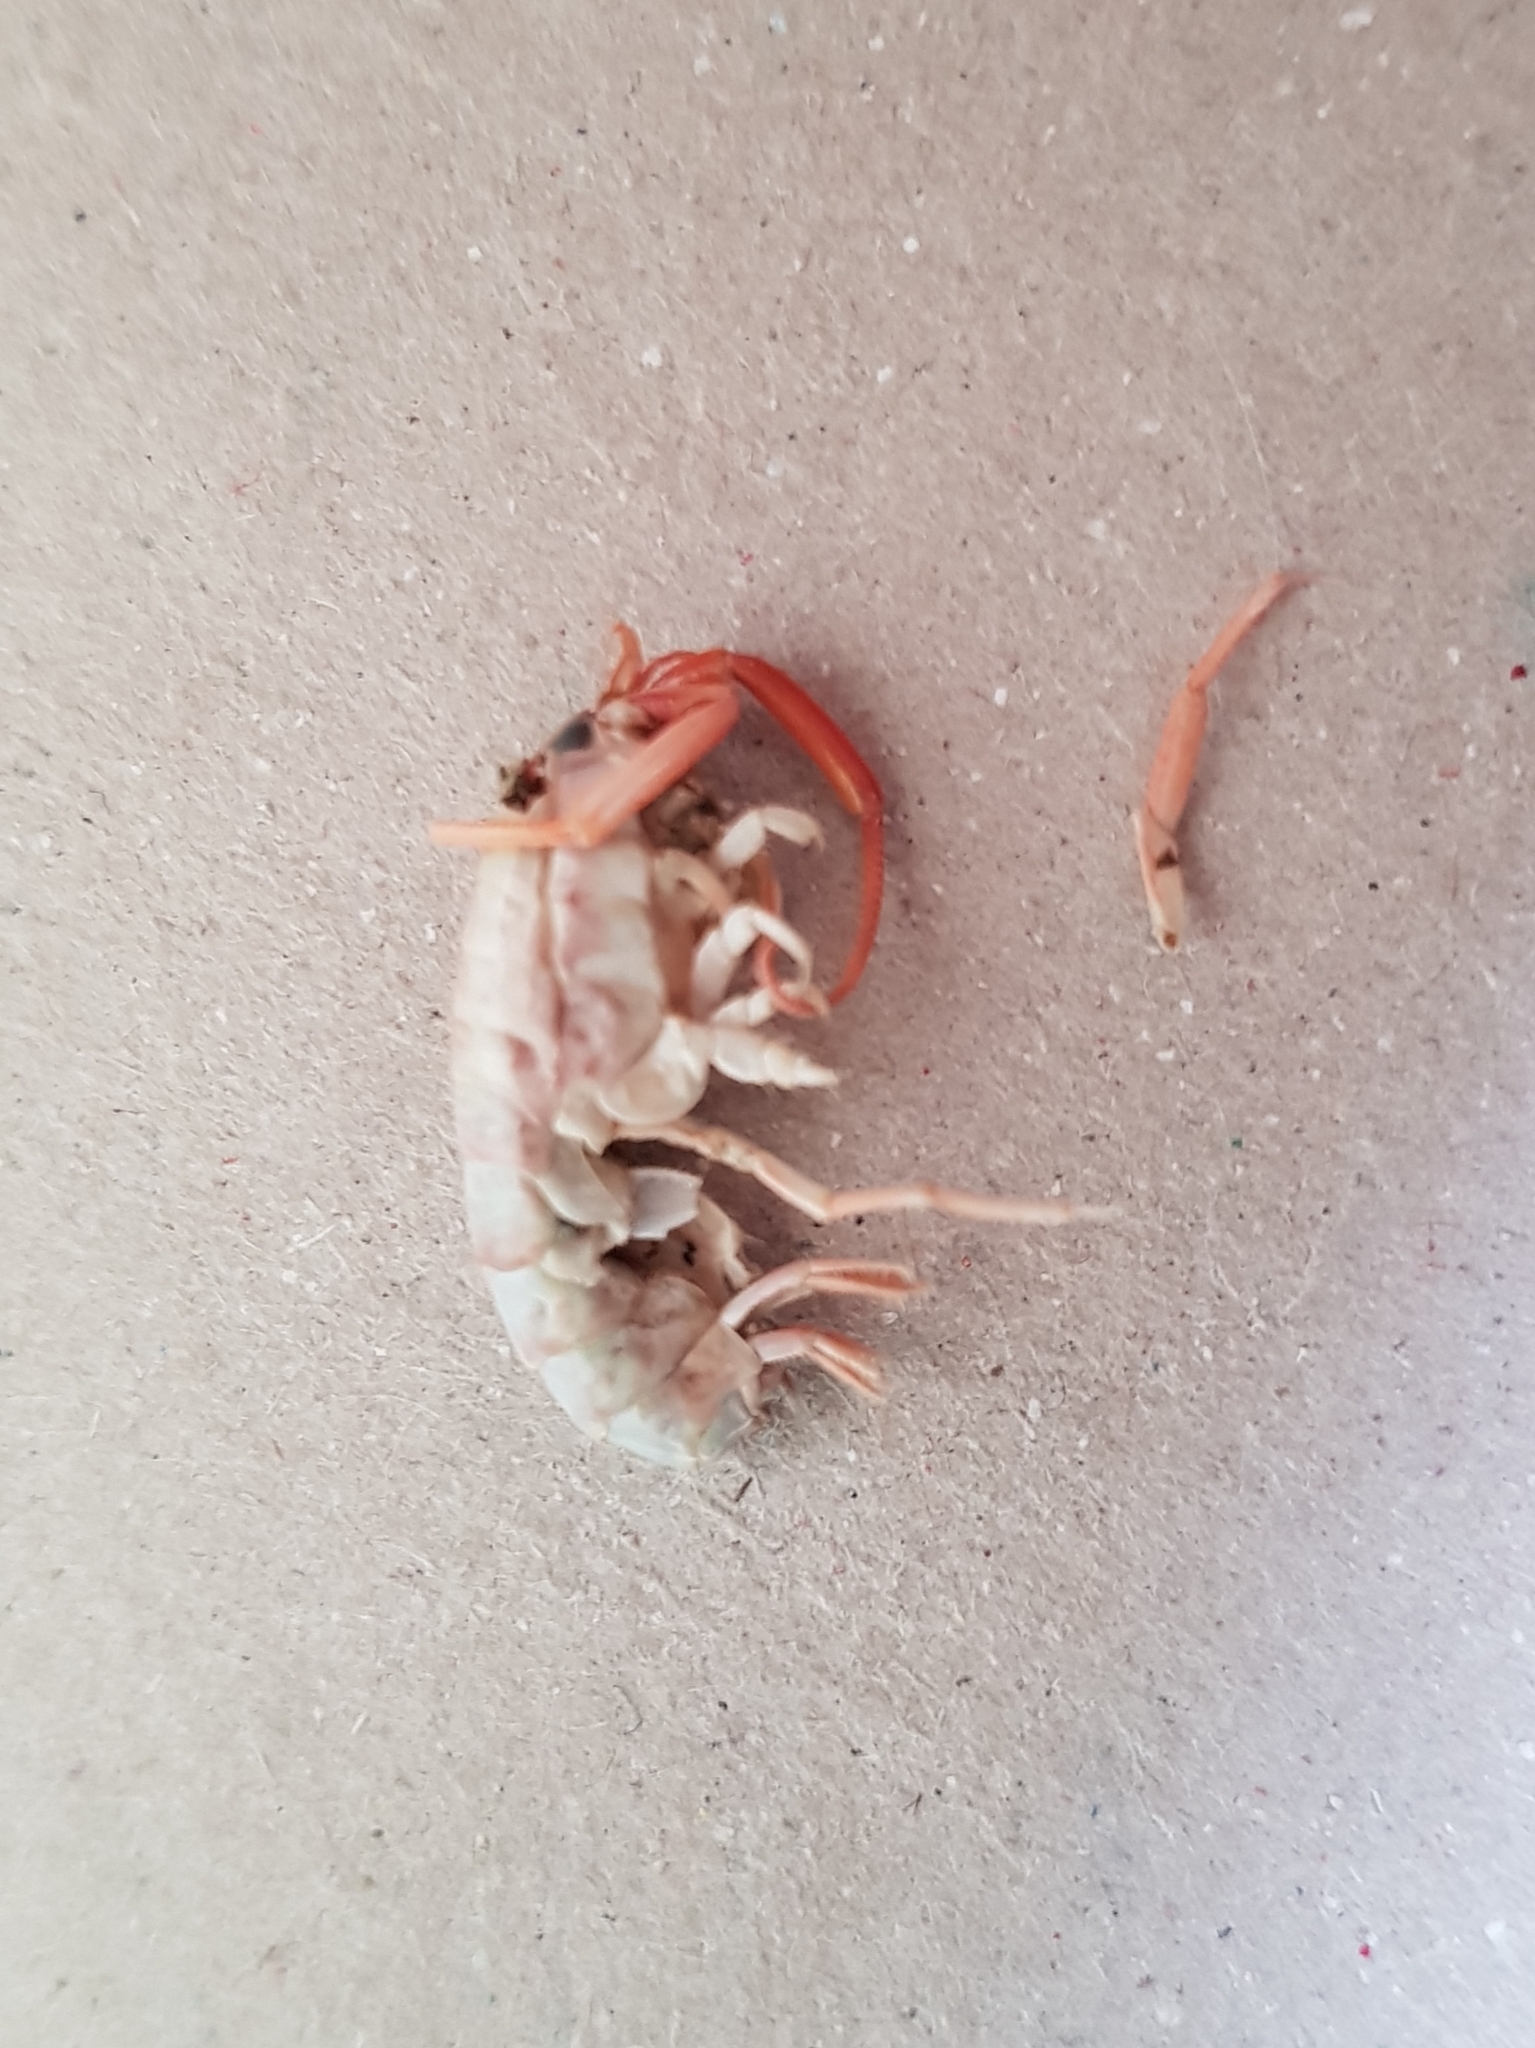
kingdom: Animalia
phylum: Arthropoda
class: Malacostraca
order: Amphipoda
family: Talitridae
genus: Bellorchestia
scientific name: Bellorchestia quoyana
